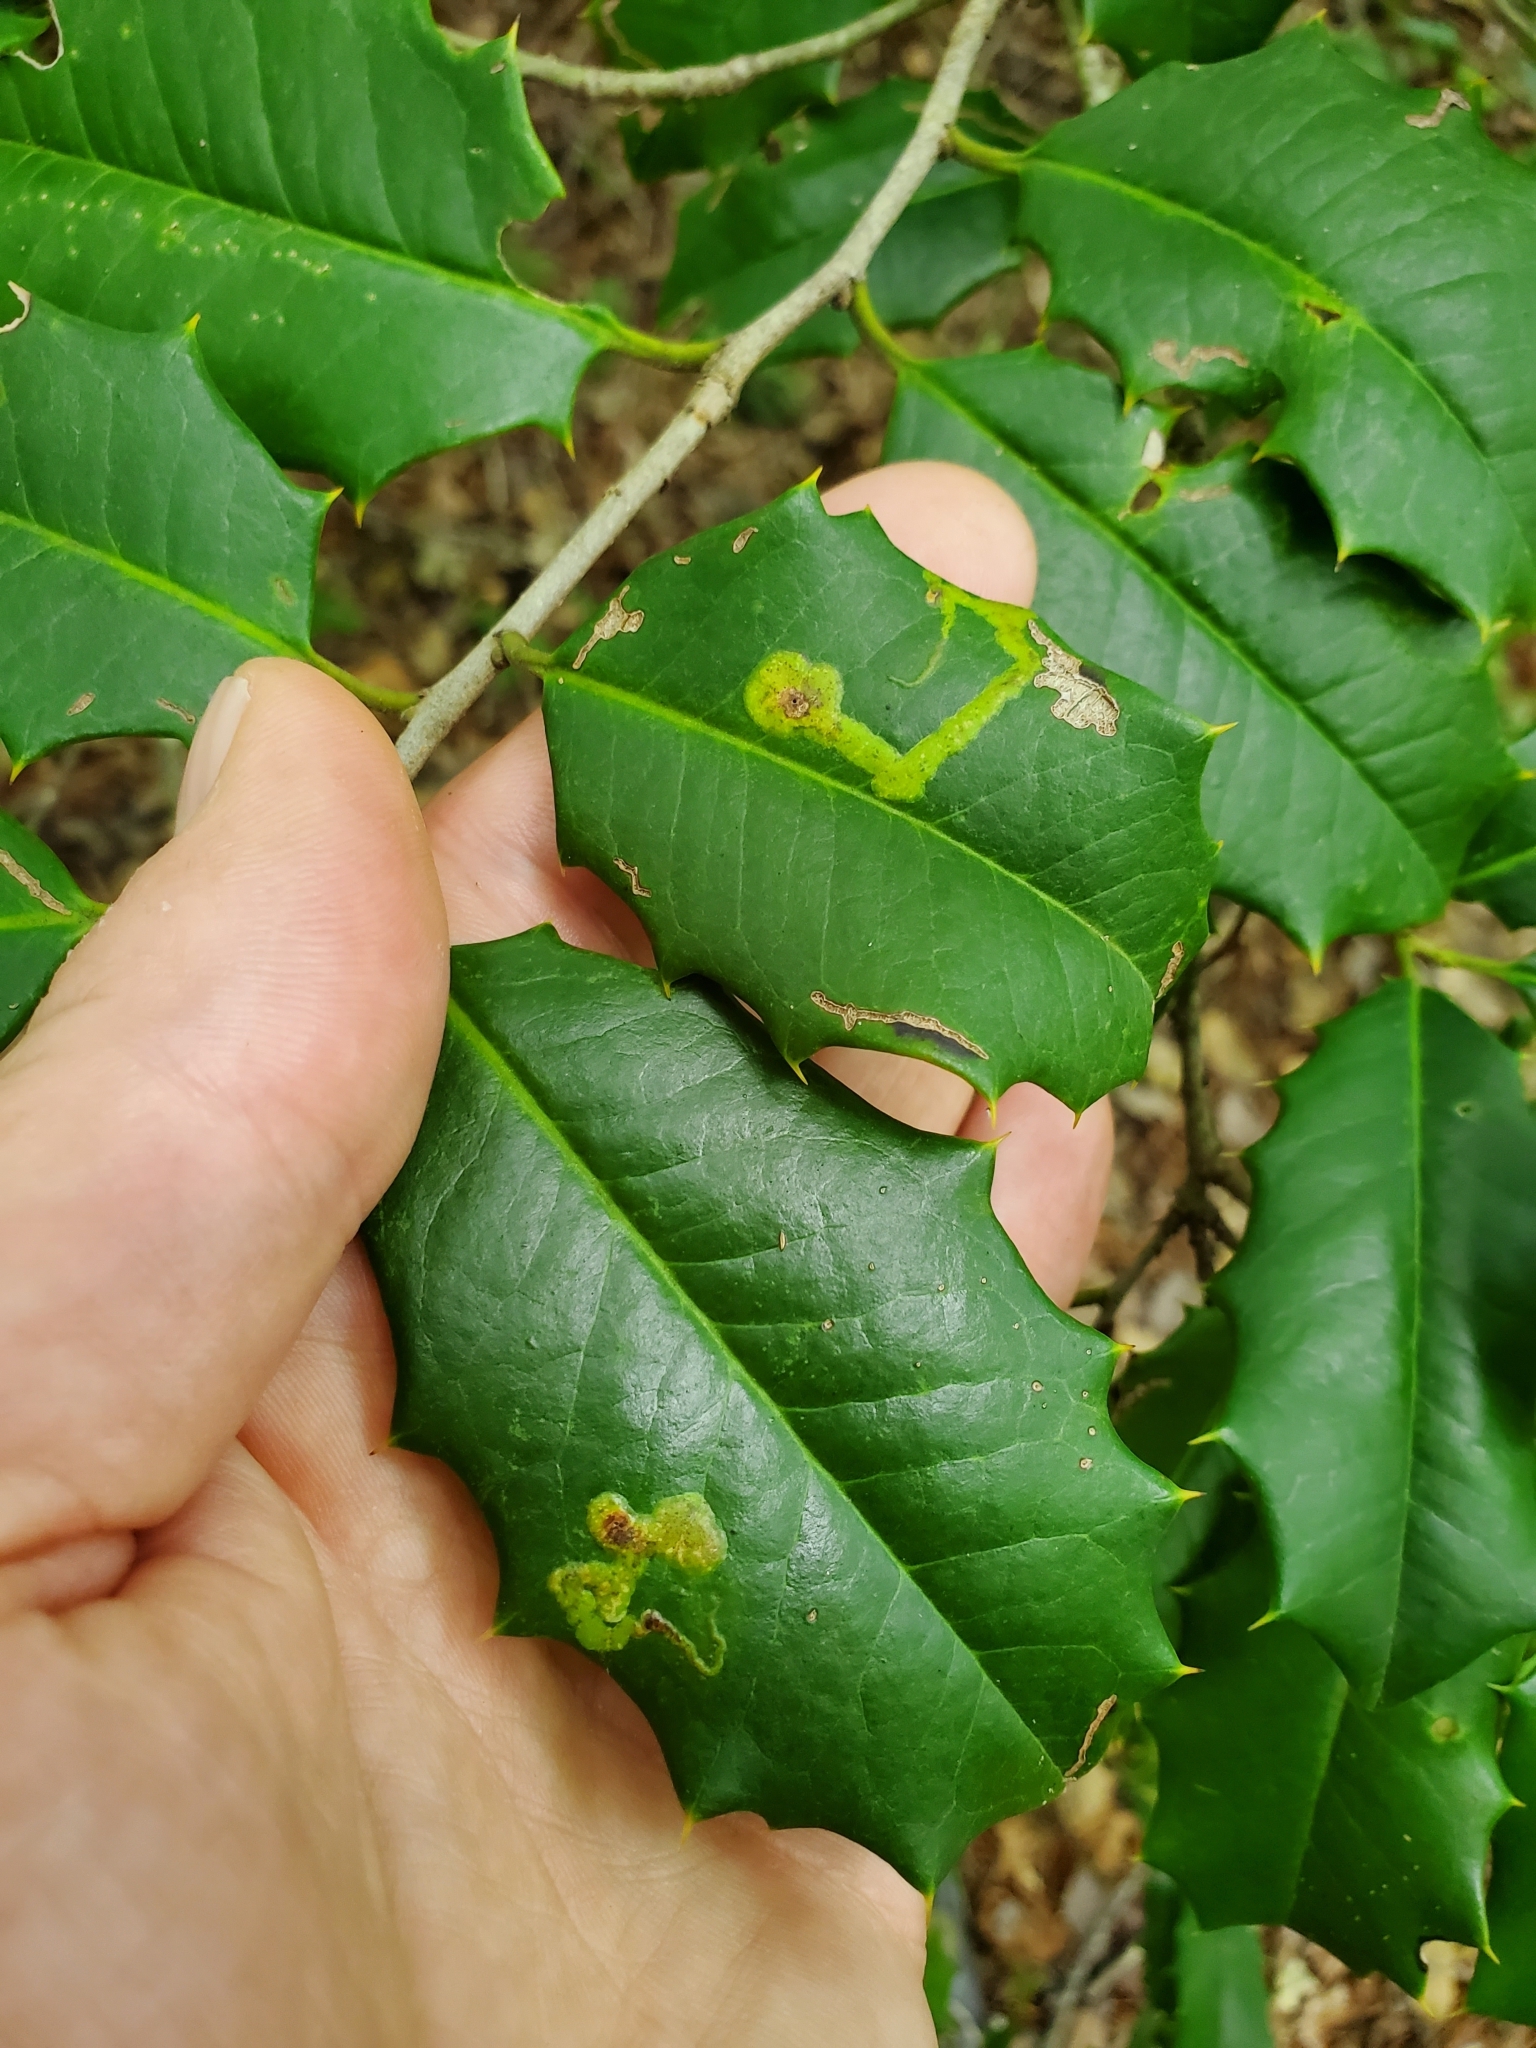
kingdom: Animalia
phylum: Arthropoda
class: Insecta
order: Diptera
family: Agromyzidae
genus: Phytomyza
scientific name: Phytomyza ilicicola
